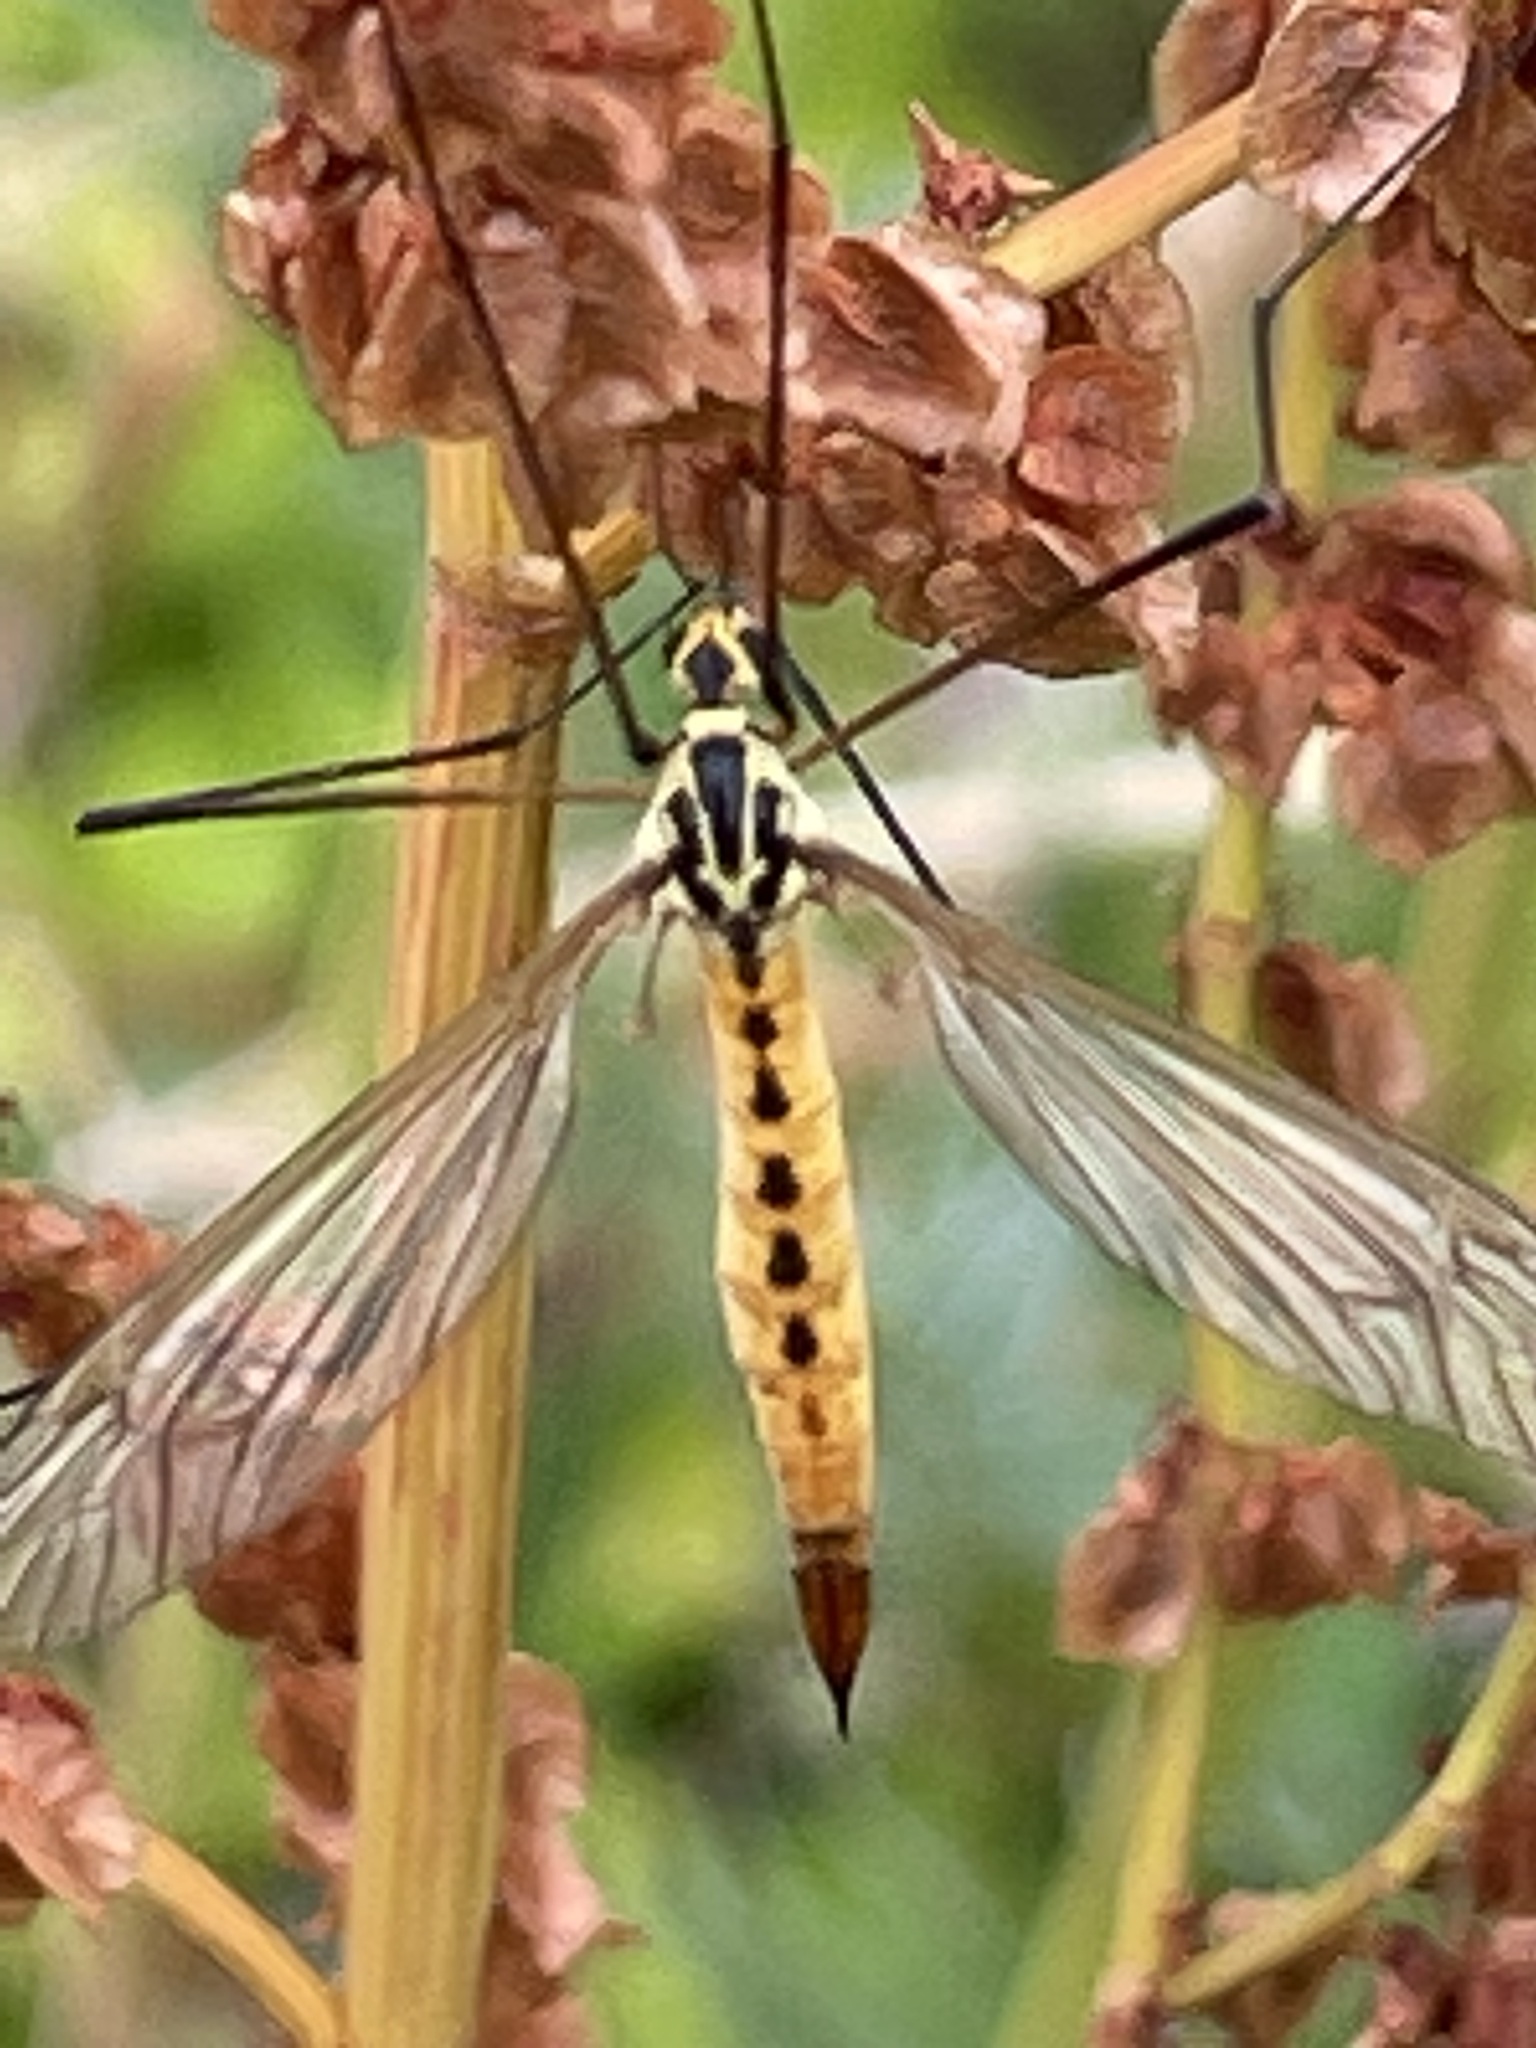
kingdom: Animalia
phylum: Arthropoda
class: Insecta
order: Diptera
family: Tipulidae
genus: Nephrotoma
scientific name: Nephrotoma flavescens
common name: Tiger cranefly
